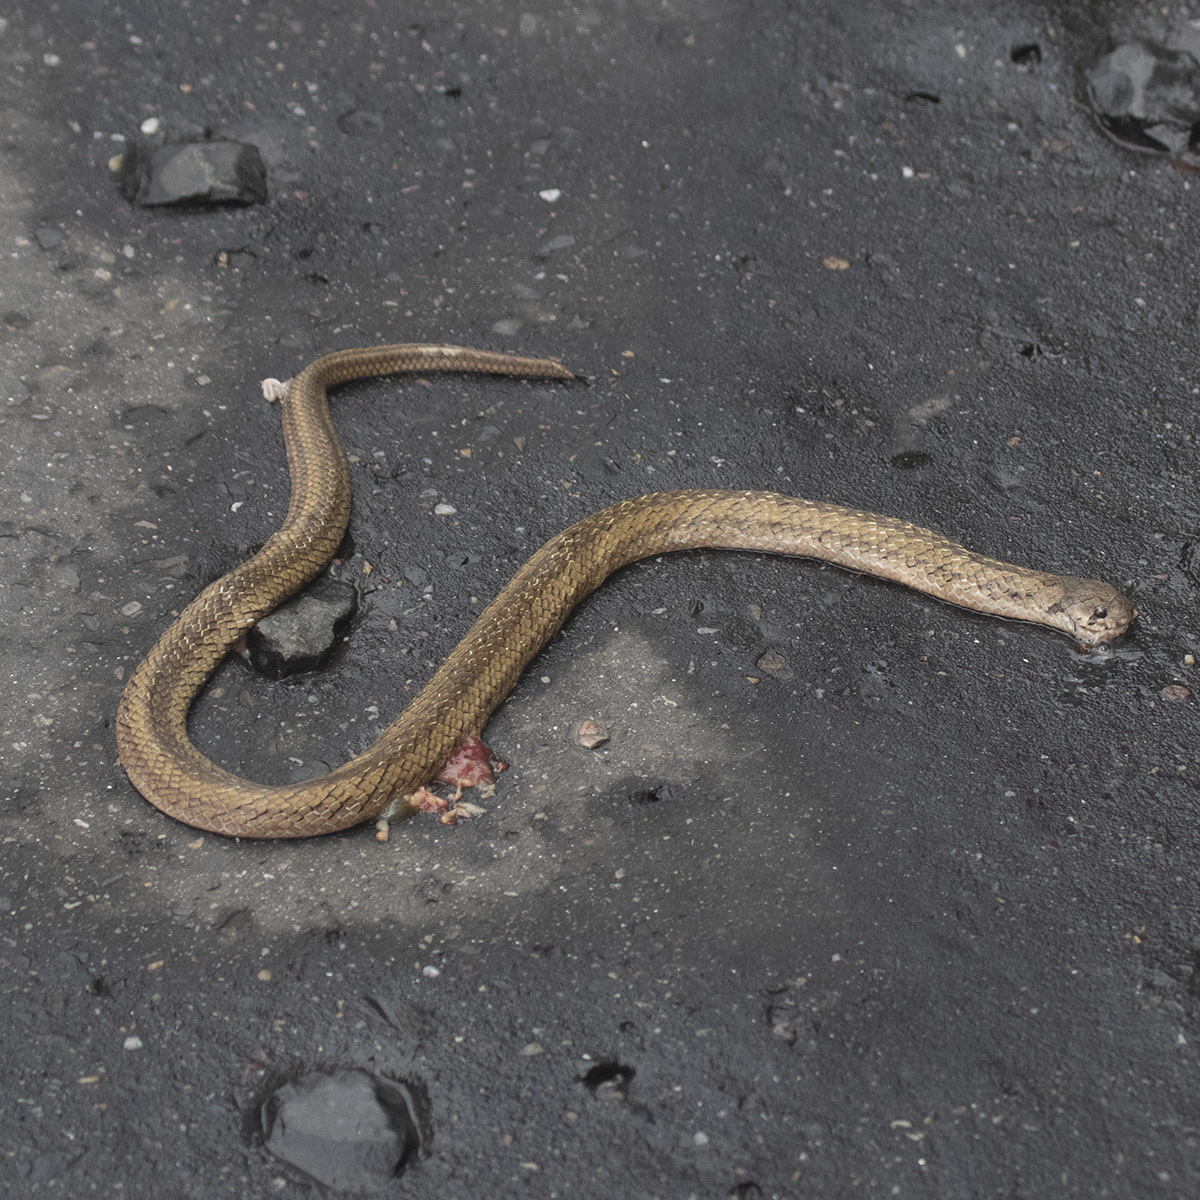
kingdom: Animalia
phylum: Chordata
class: Squamata
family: Colubridae
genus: Oligodon
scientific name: Oligodon cyclurus
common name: Cantor's kukri snake
